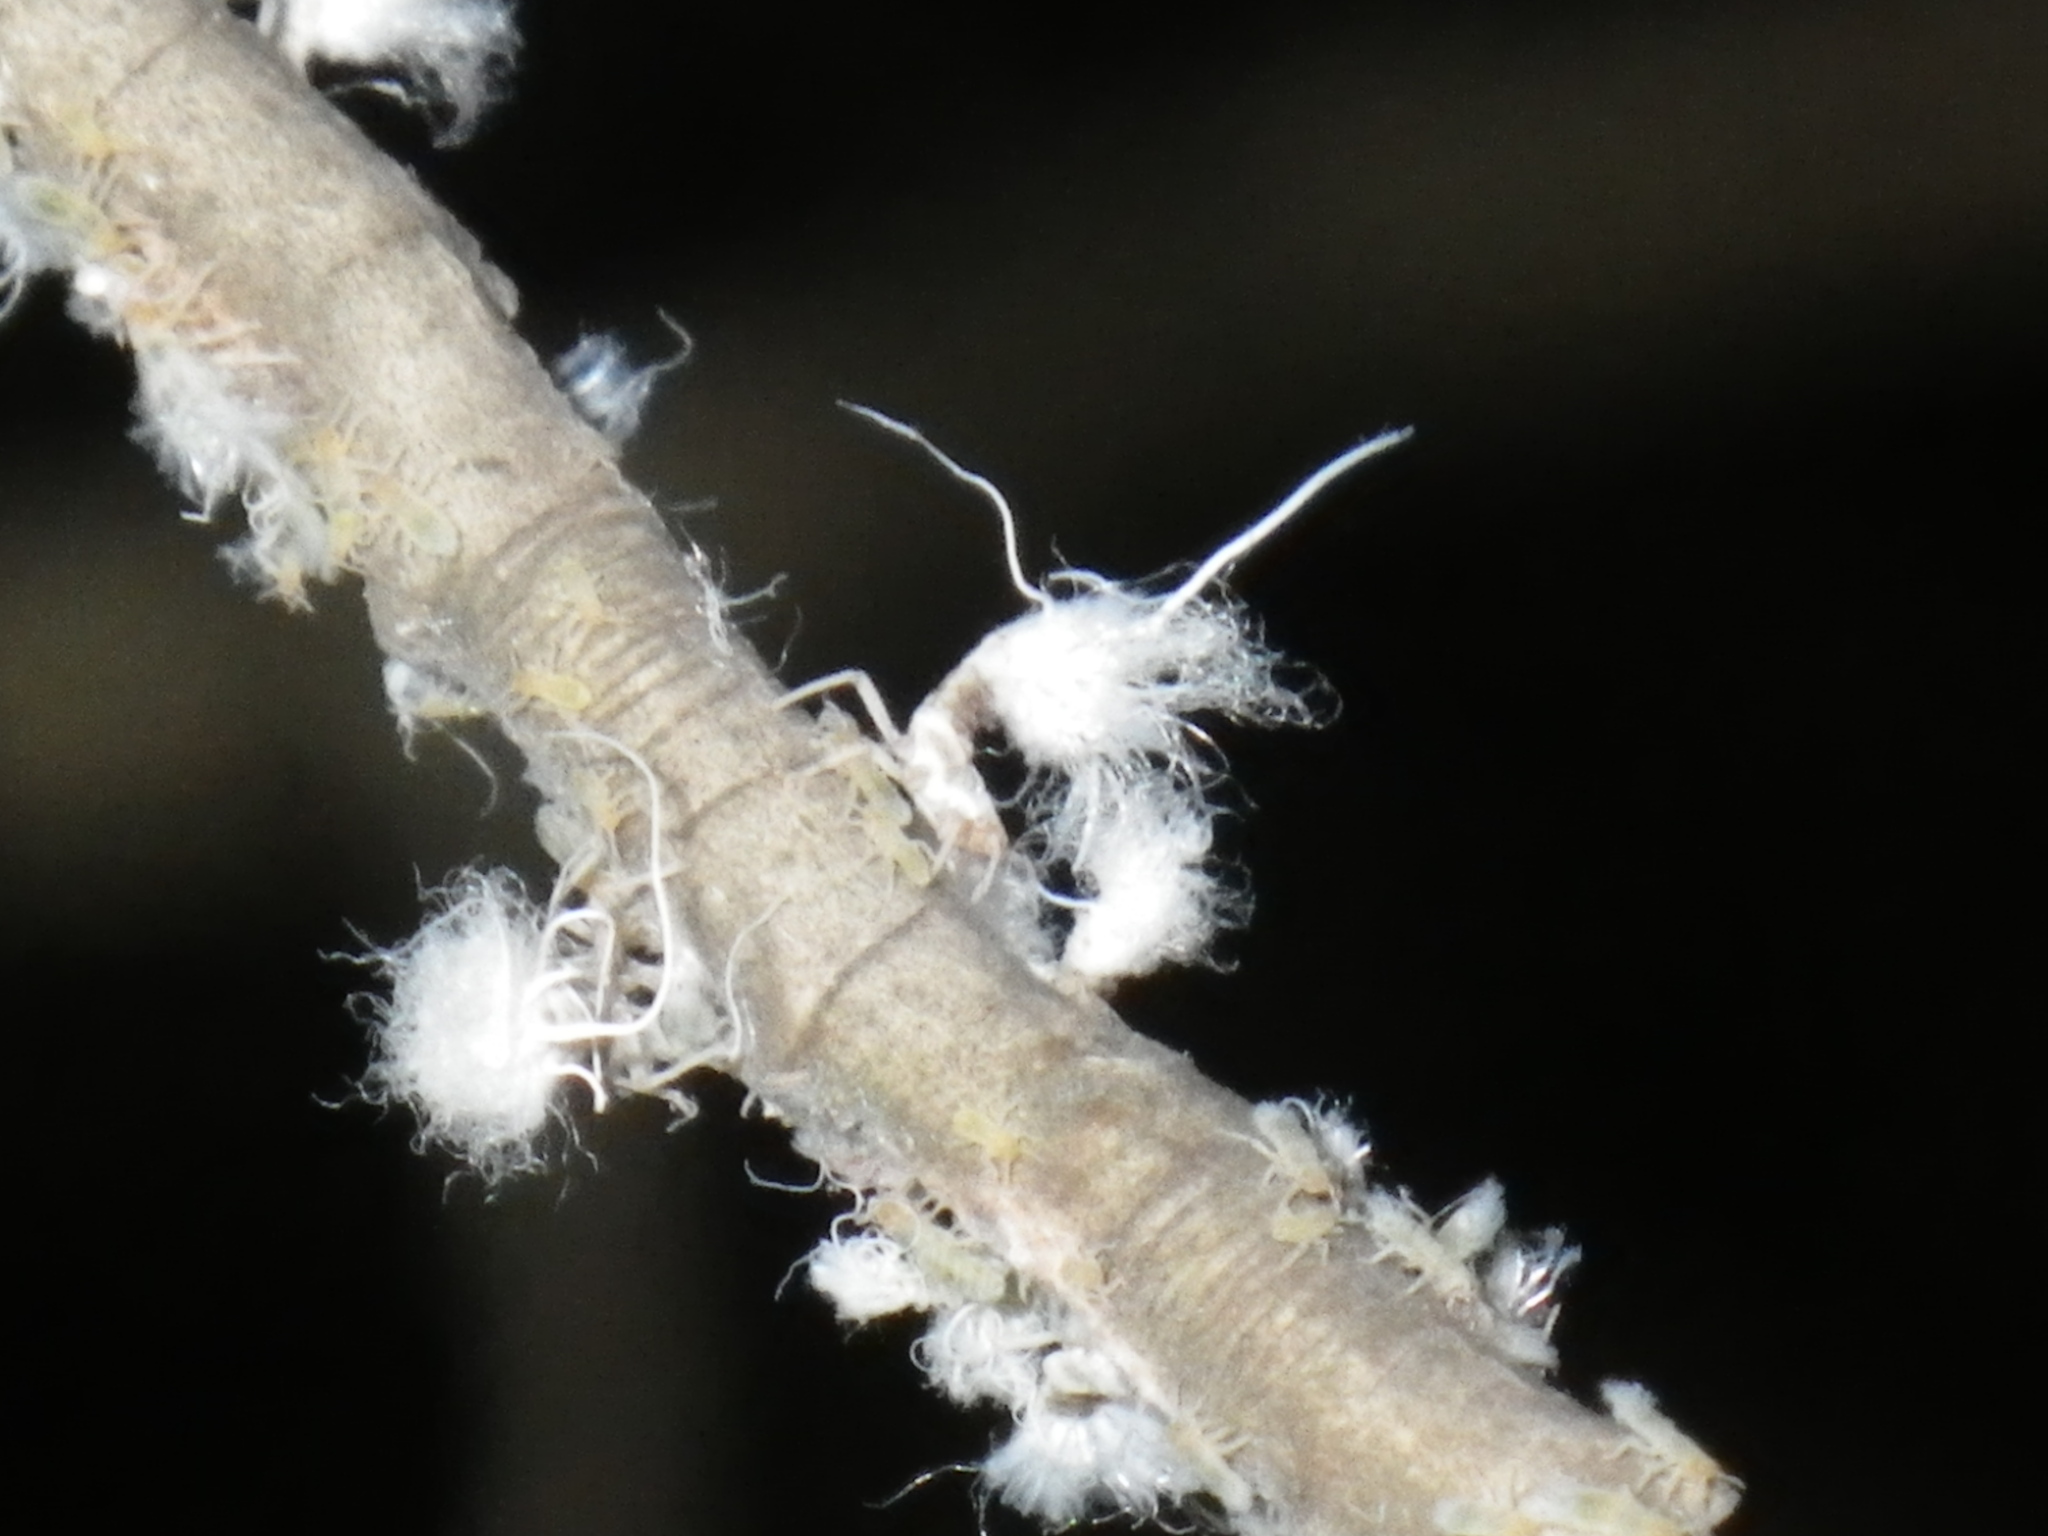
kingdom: Animalia
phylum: Arthropoda
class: Insecta
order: Hemiptera
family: Aphididae
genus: Grylloprociphilus
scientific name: Grylloprociphilus imbricator
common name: Beech blight aphid
